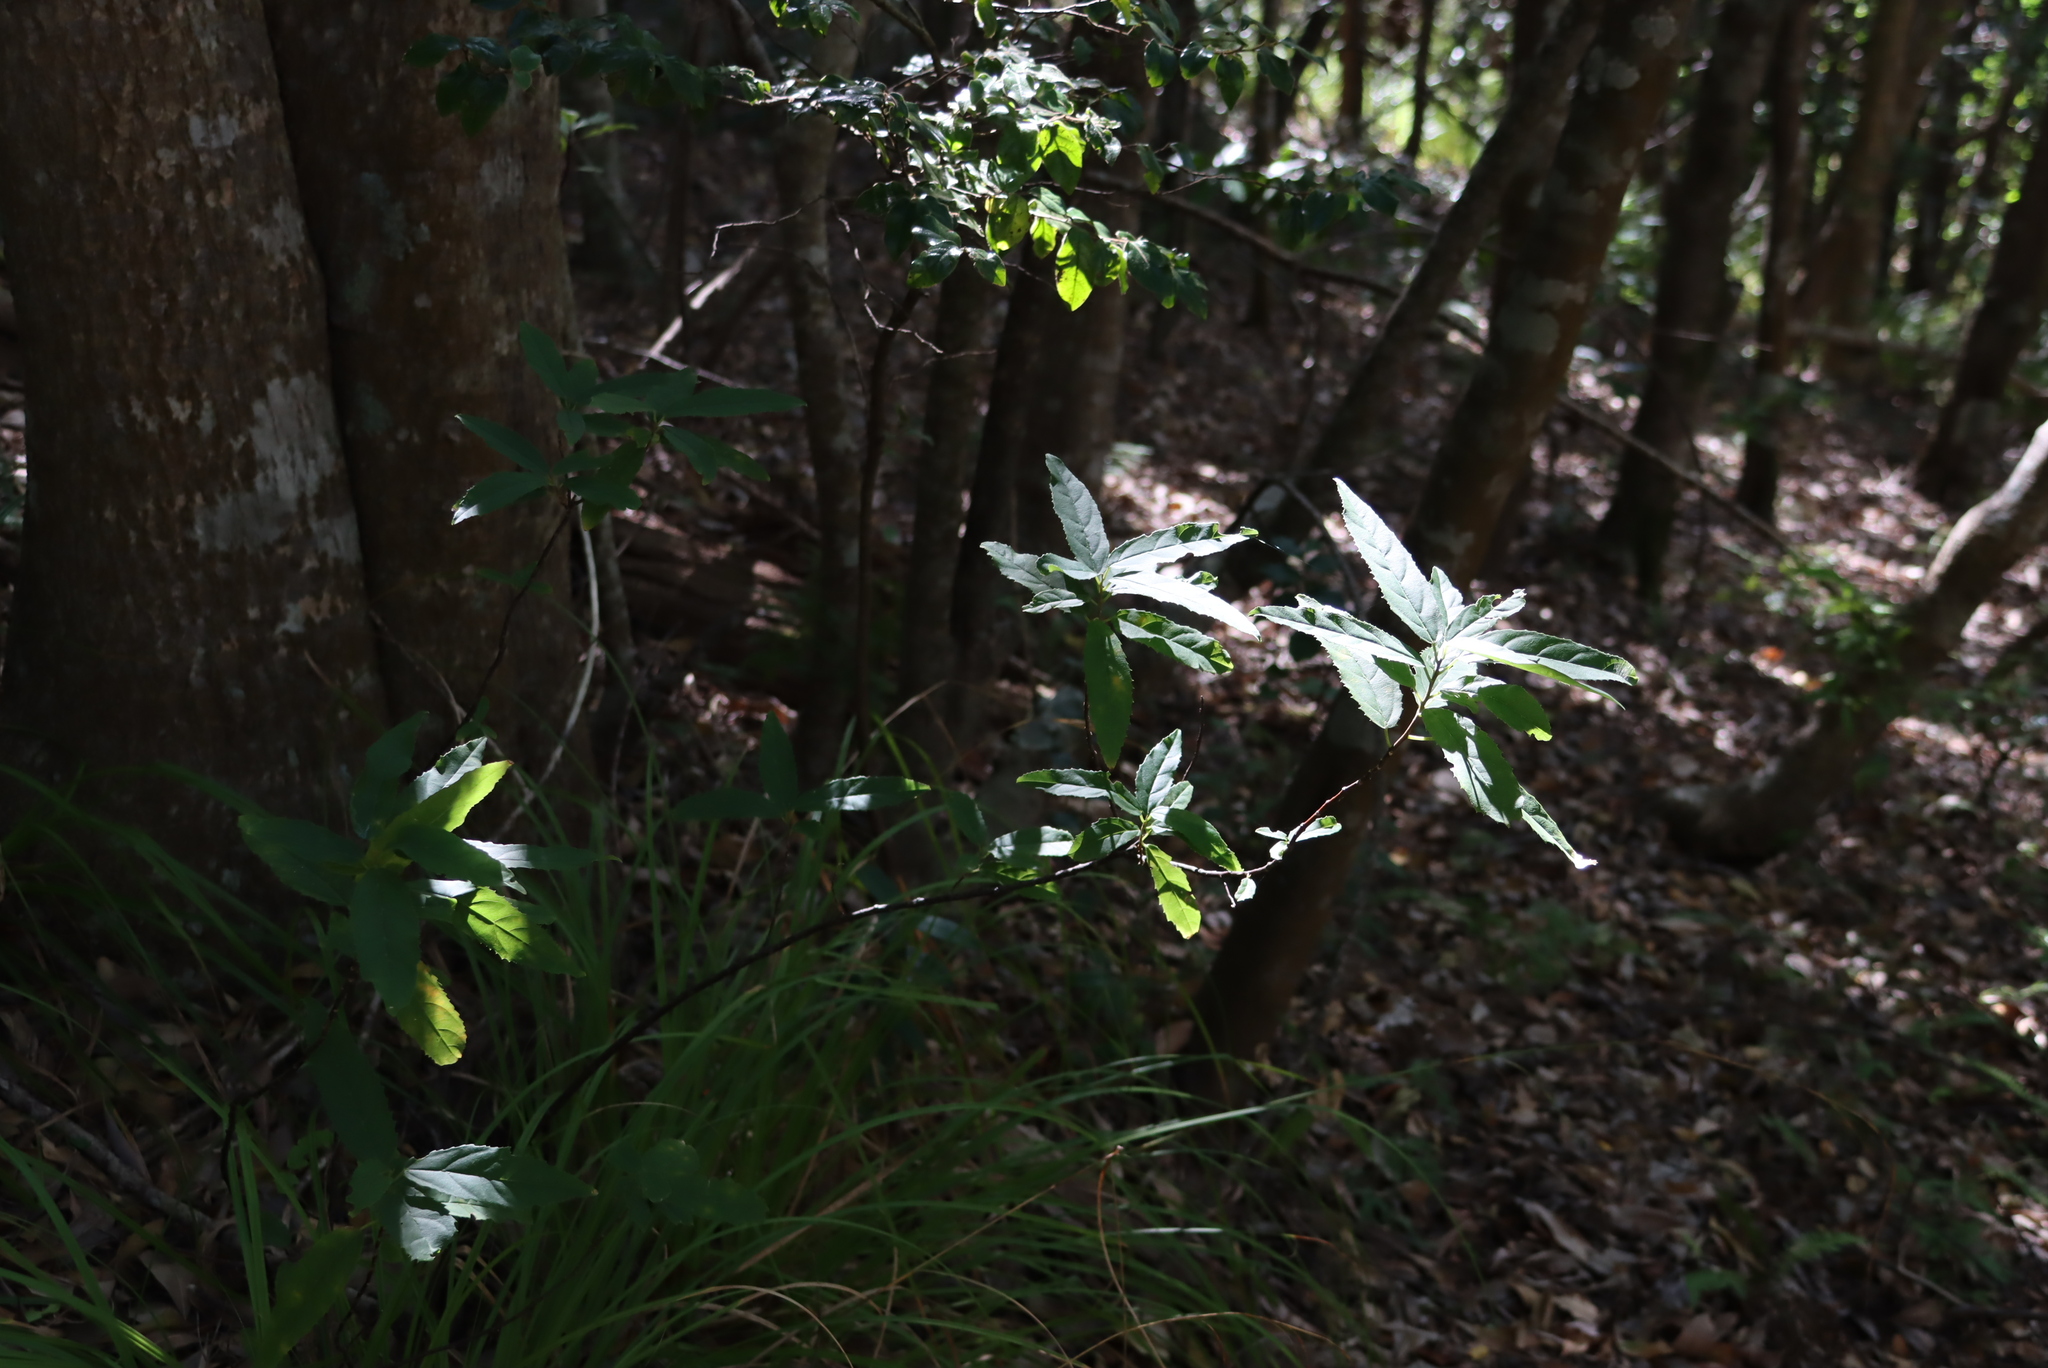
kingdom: Plantae
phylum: Tracheophyta
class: Magnoliopsida
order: Malpighiales
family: Achariaceae
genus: Kiggelaria
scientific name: Kiggelaria africana
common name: Wild peach
